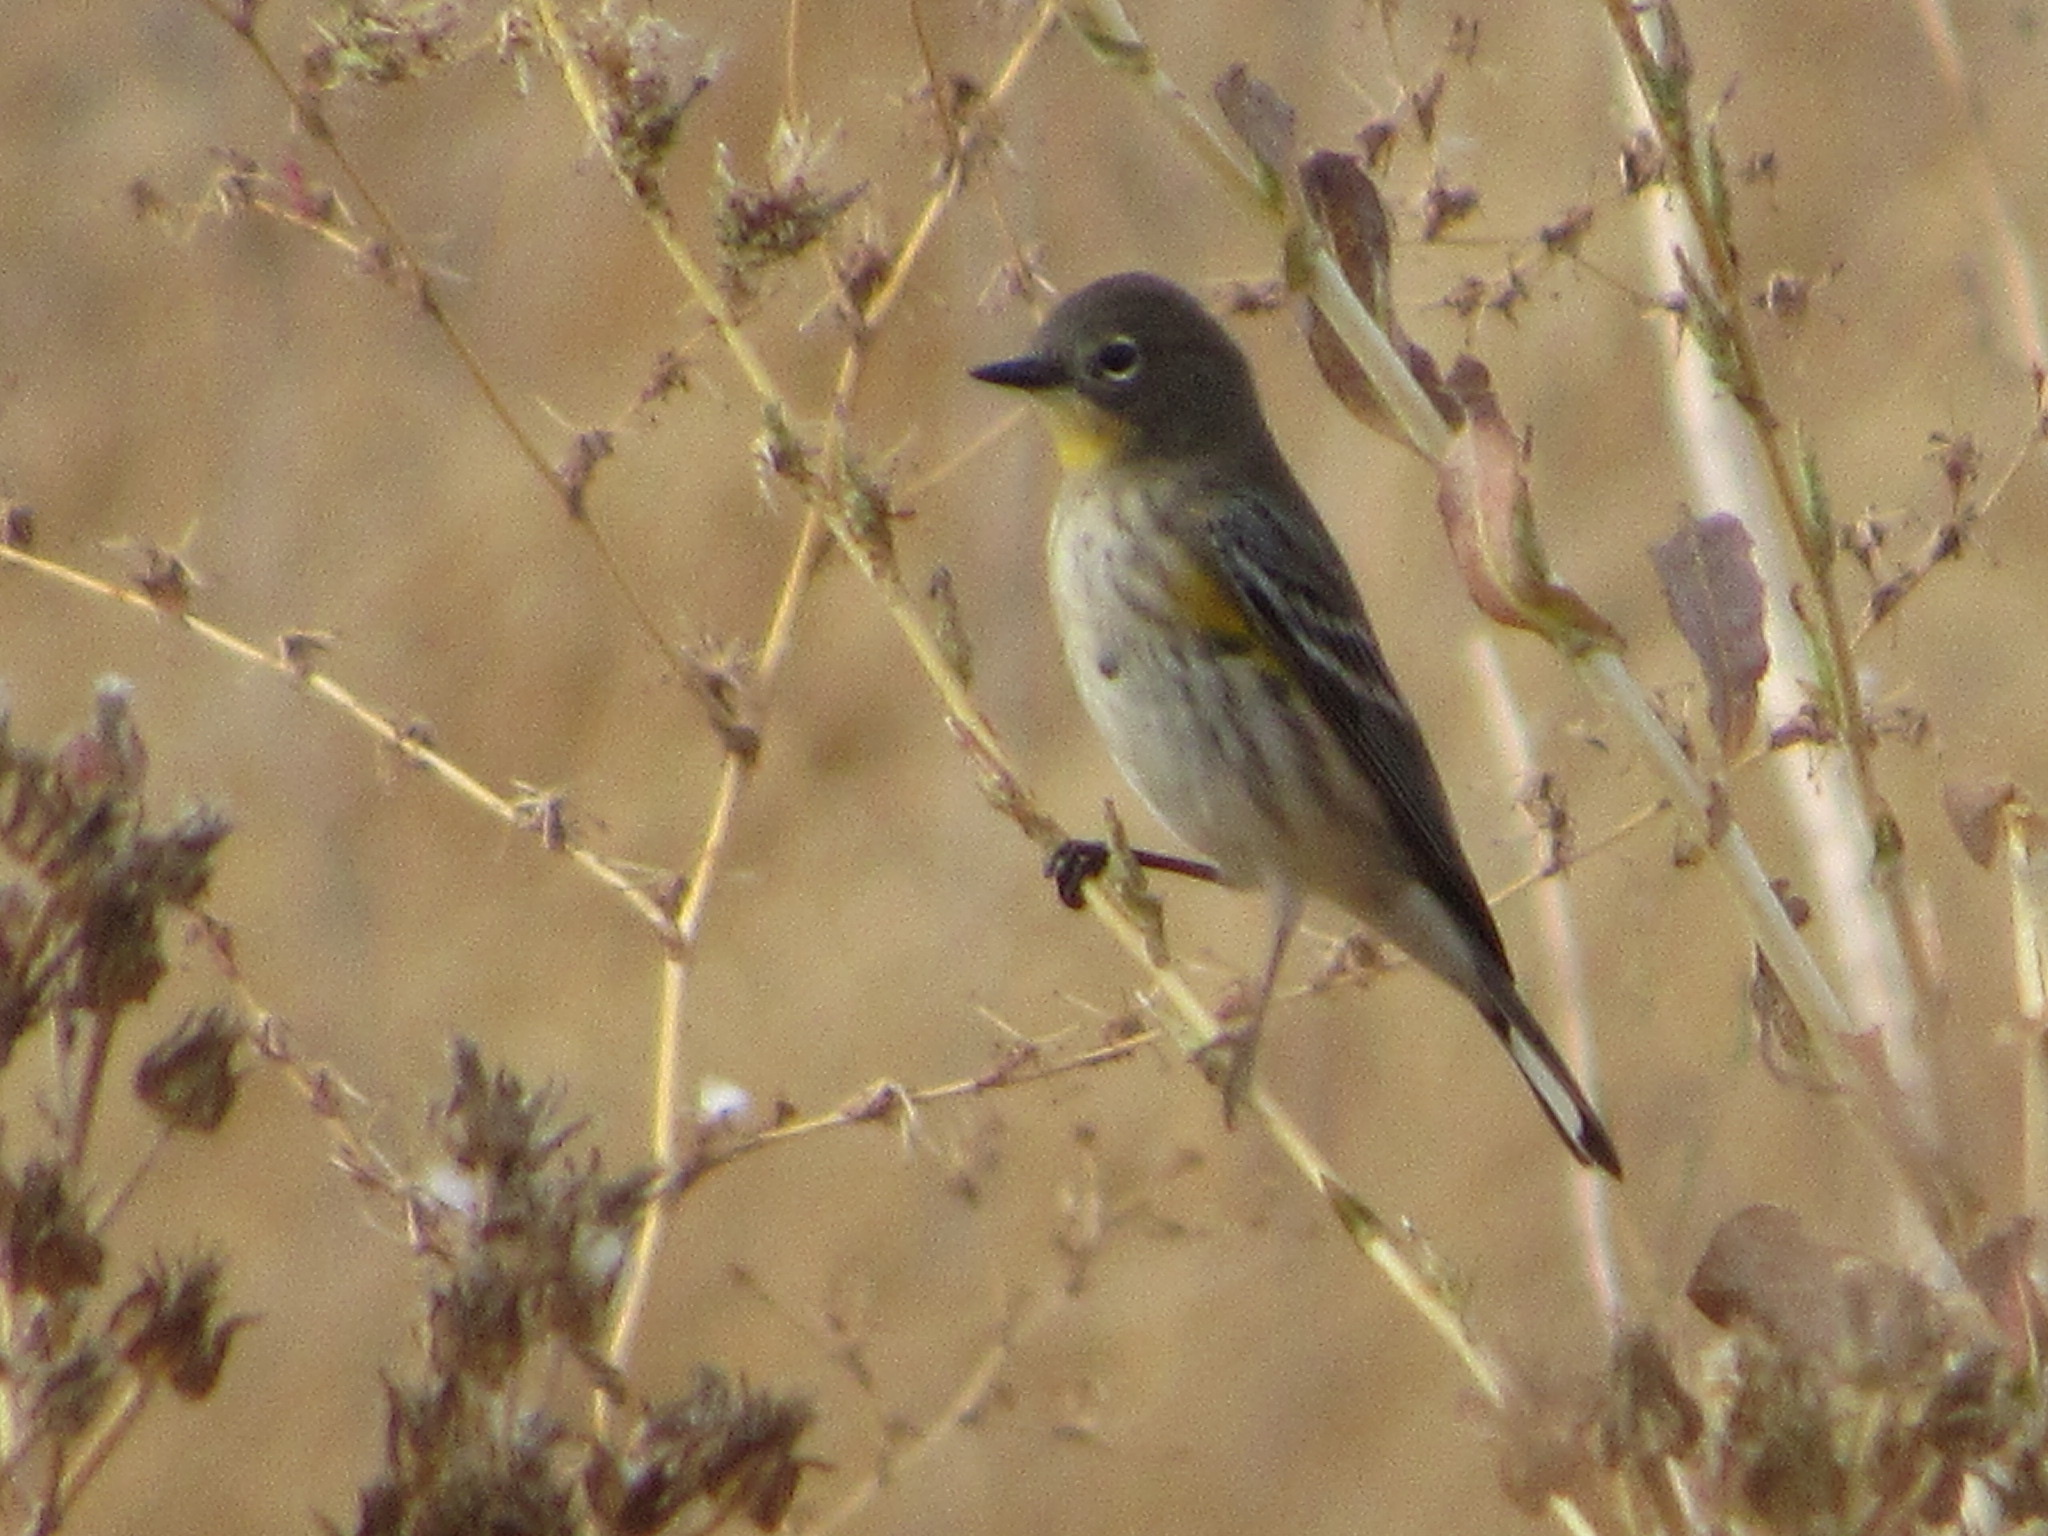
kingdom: Animalia
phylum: Chordata
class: Aves
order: Passeriformes
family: Parulidae
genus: Setophaga
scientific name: Setophaga coronata
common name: Myrtle warbler
